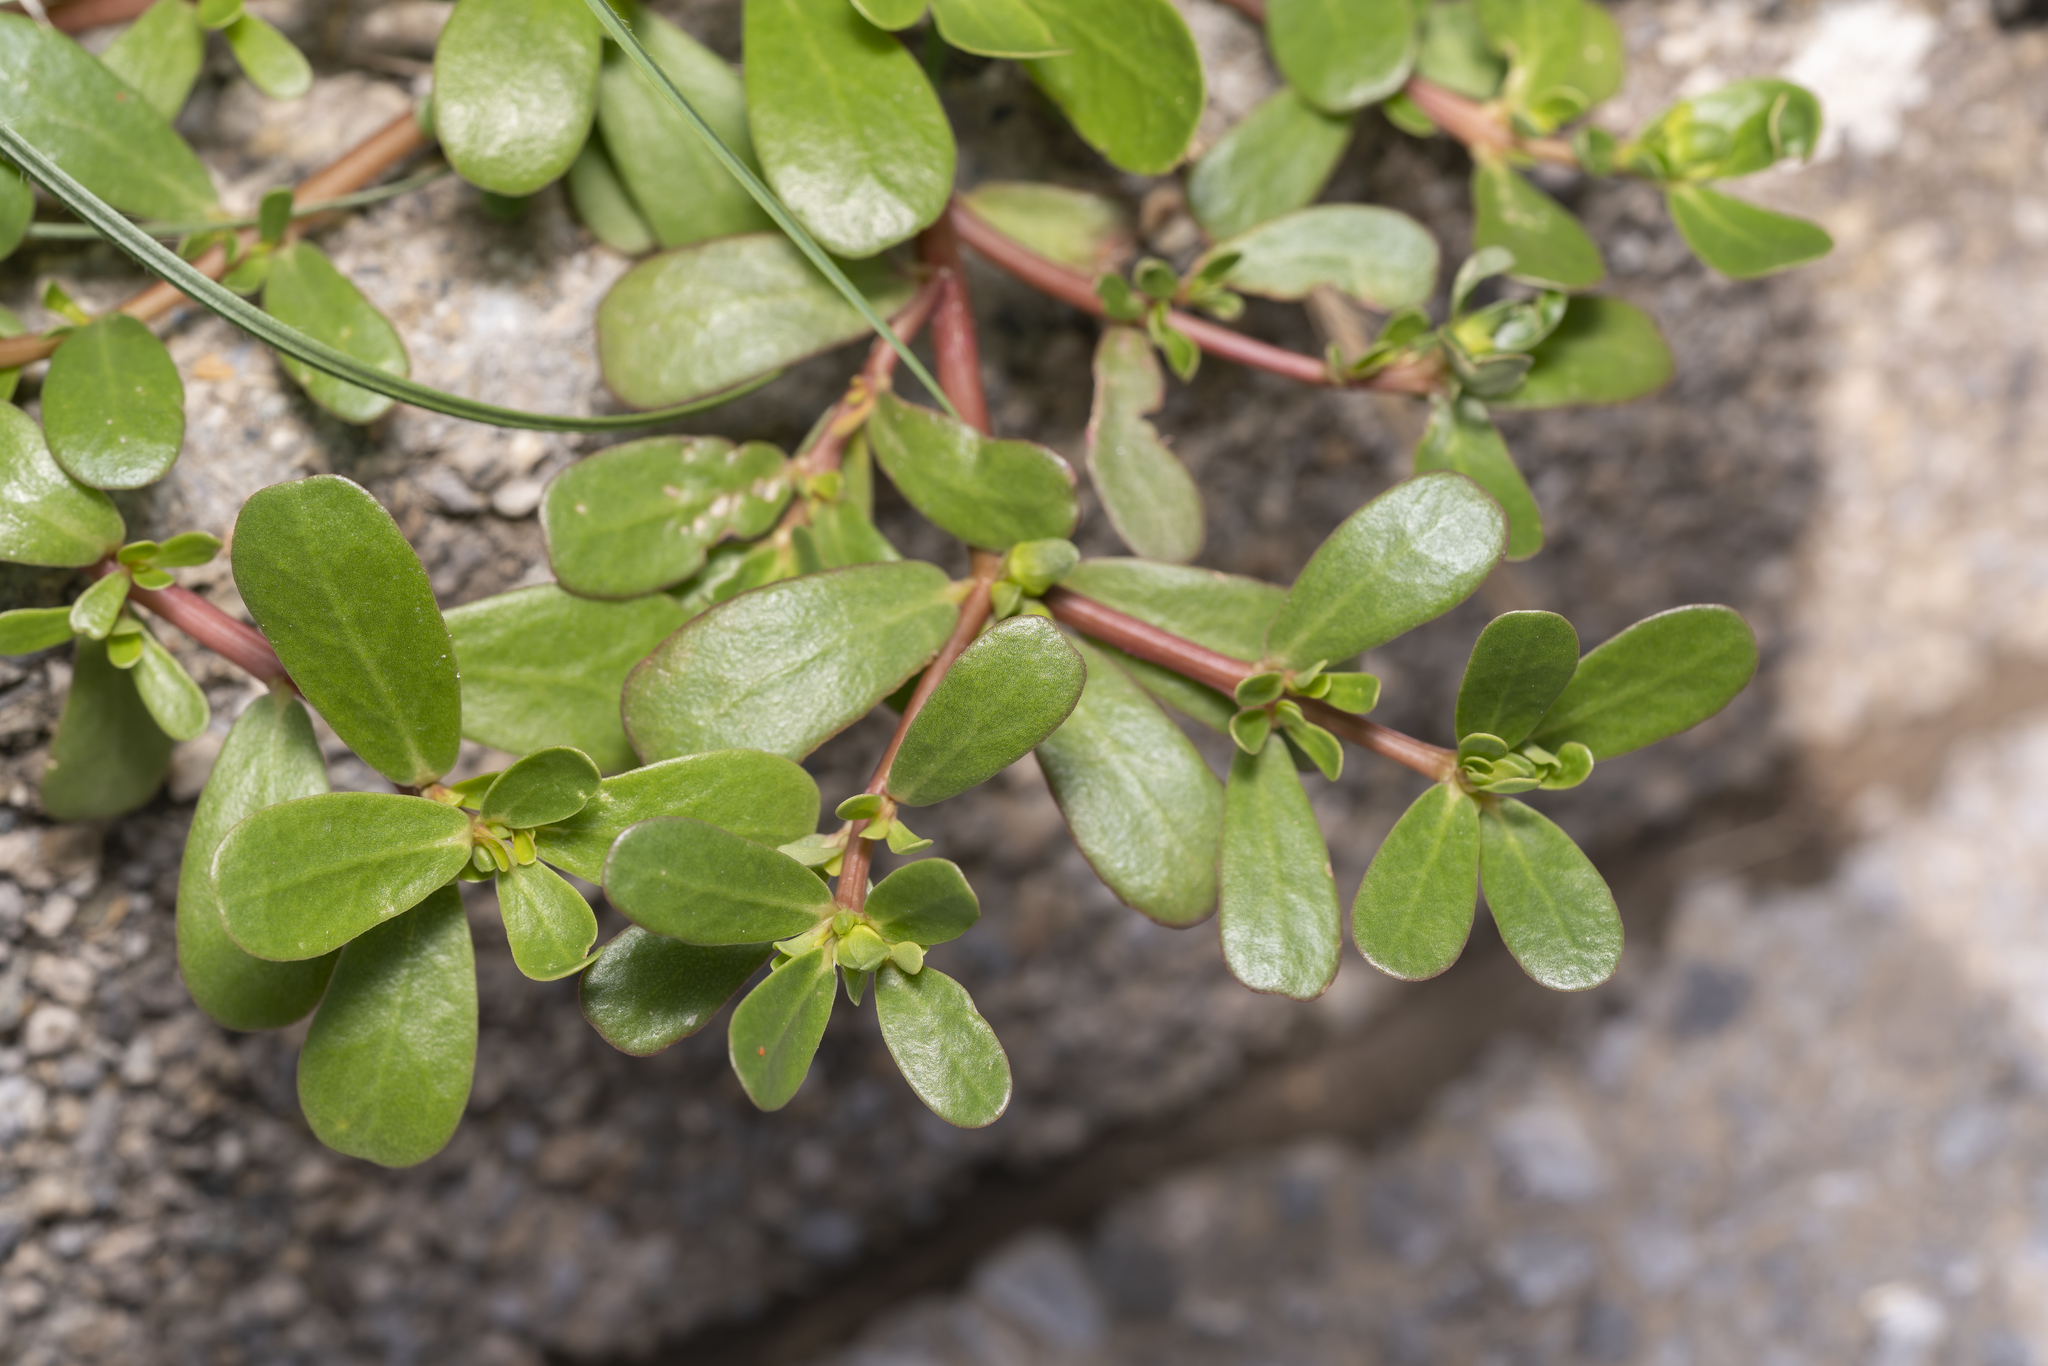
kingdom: Plantae
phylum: Tracheophyta
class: Magnoliopsida
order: Caryophyllales
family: Portulacaceae
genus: Portulaca
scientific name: Portulaca oleracea
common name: Common purslane
